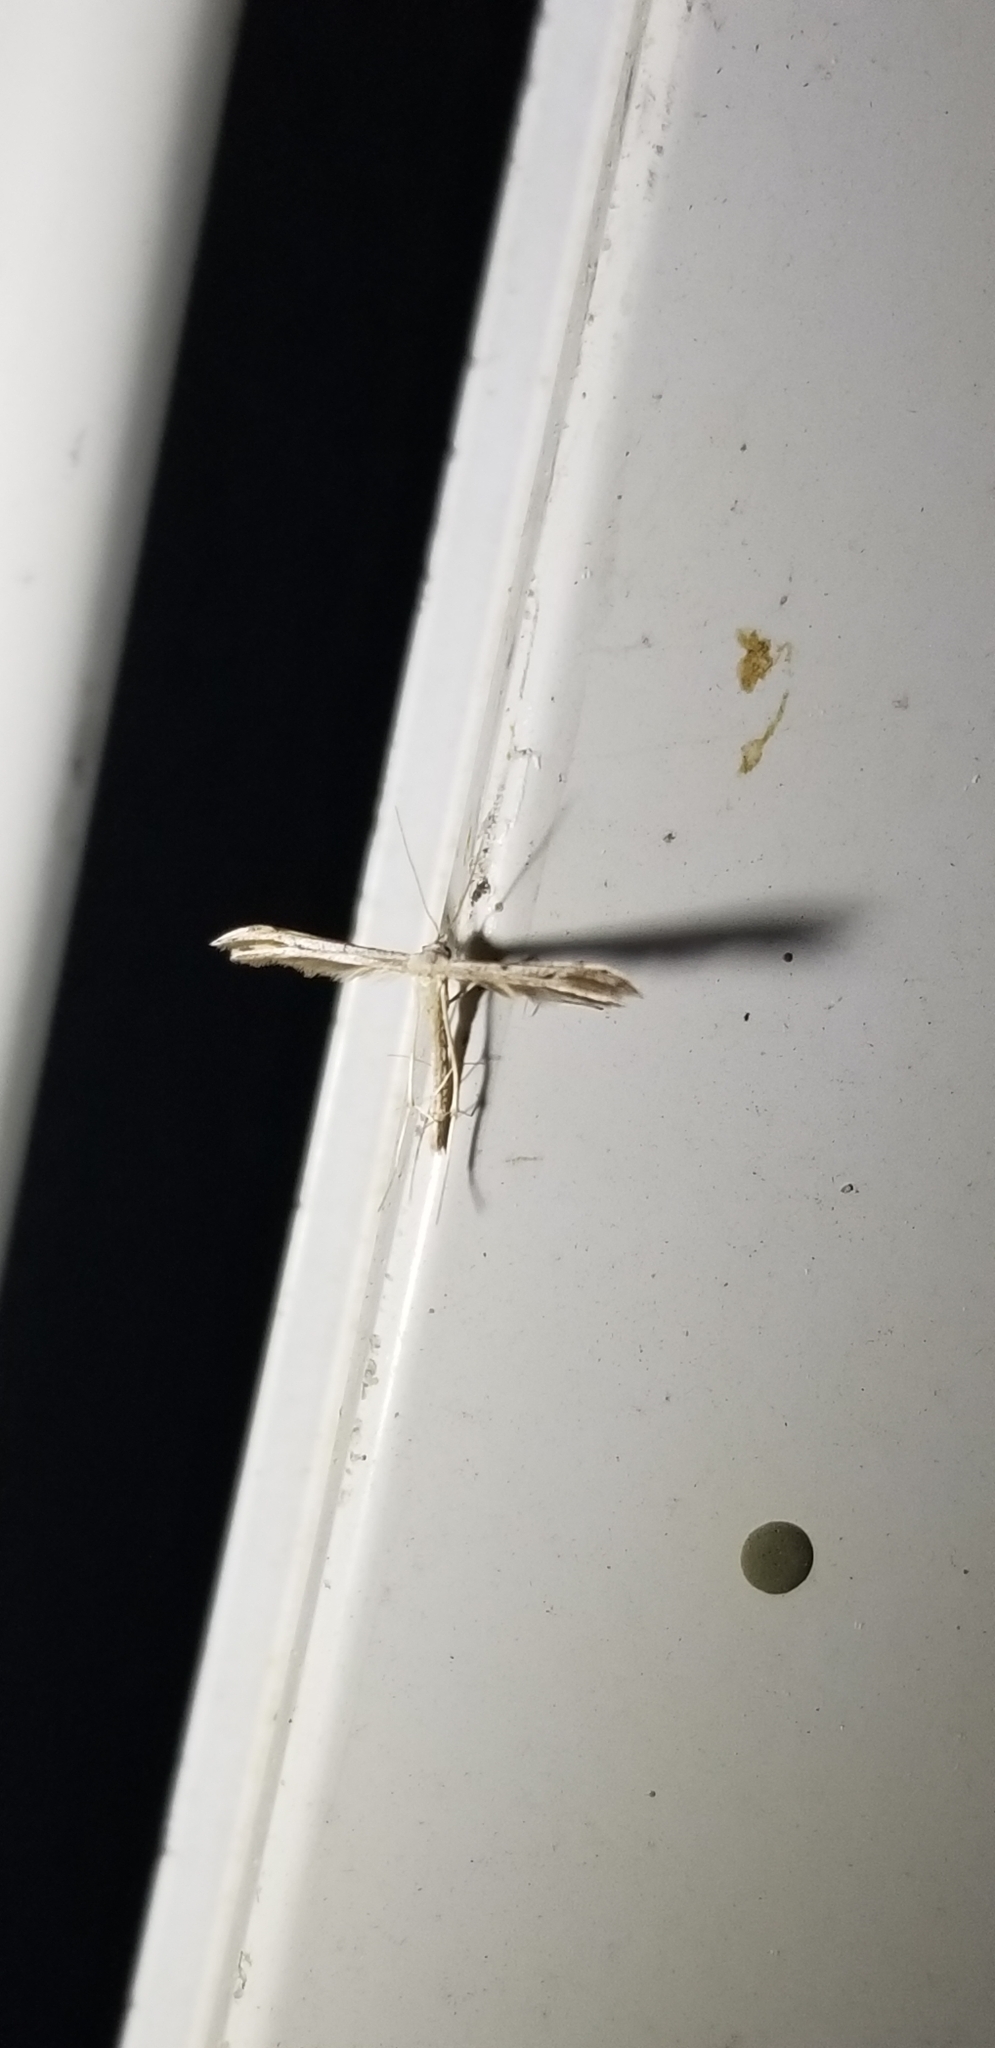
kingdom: Animalia
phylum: Arthropoda
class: Insecta
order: Lepidoptera
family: Pterophoridae
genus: Pselnophorus
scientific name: Pselnophorus belfragei
